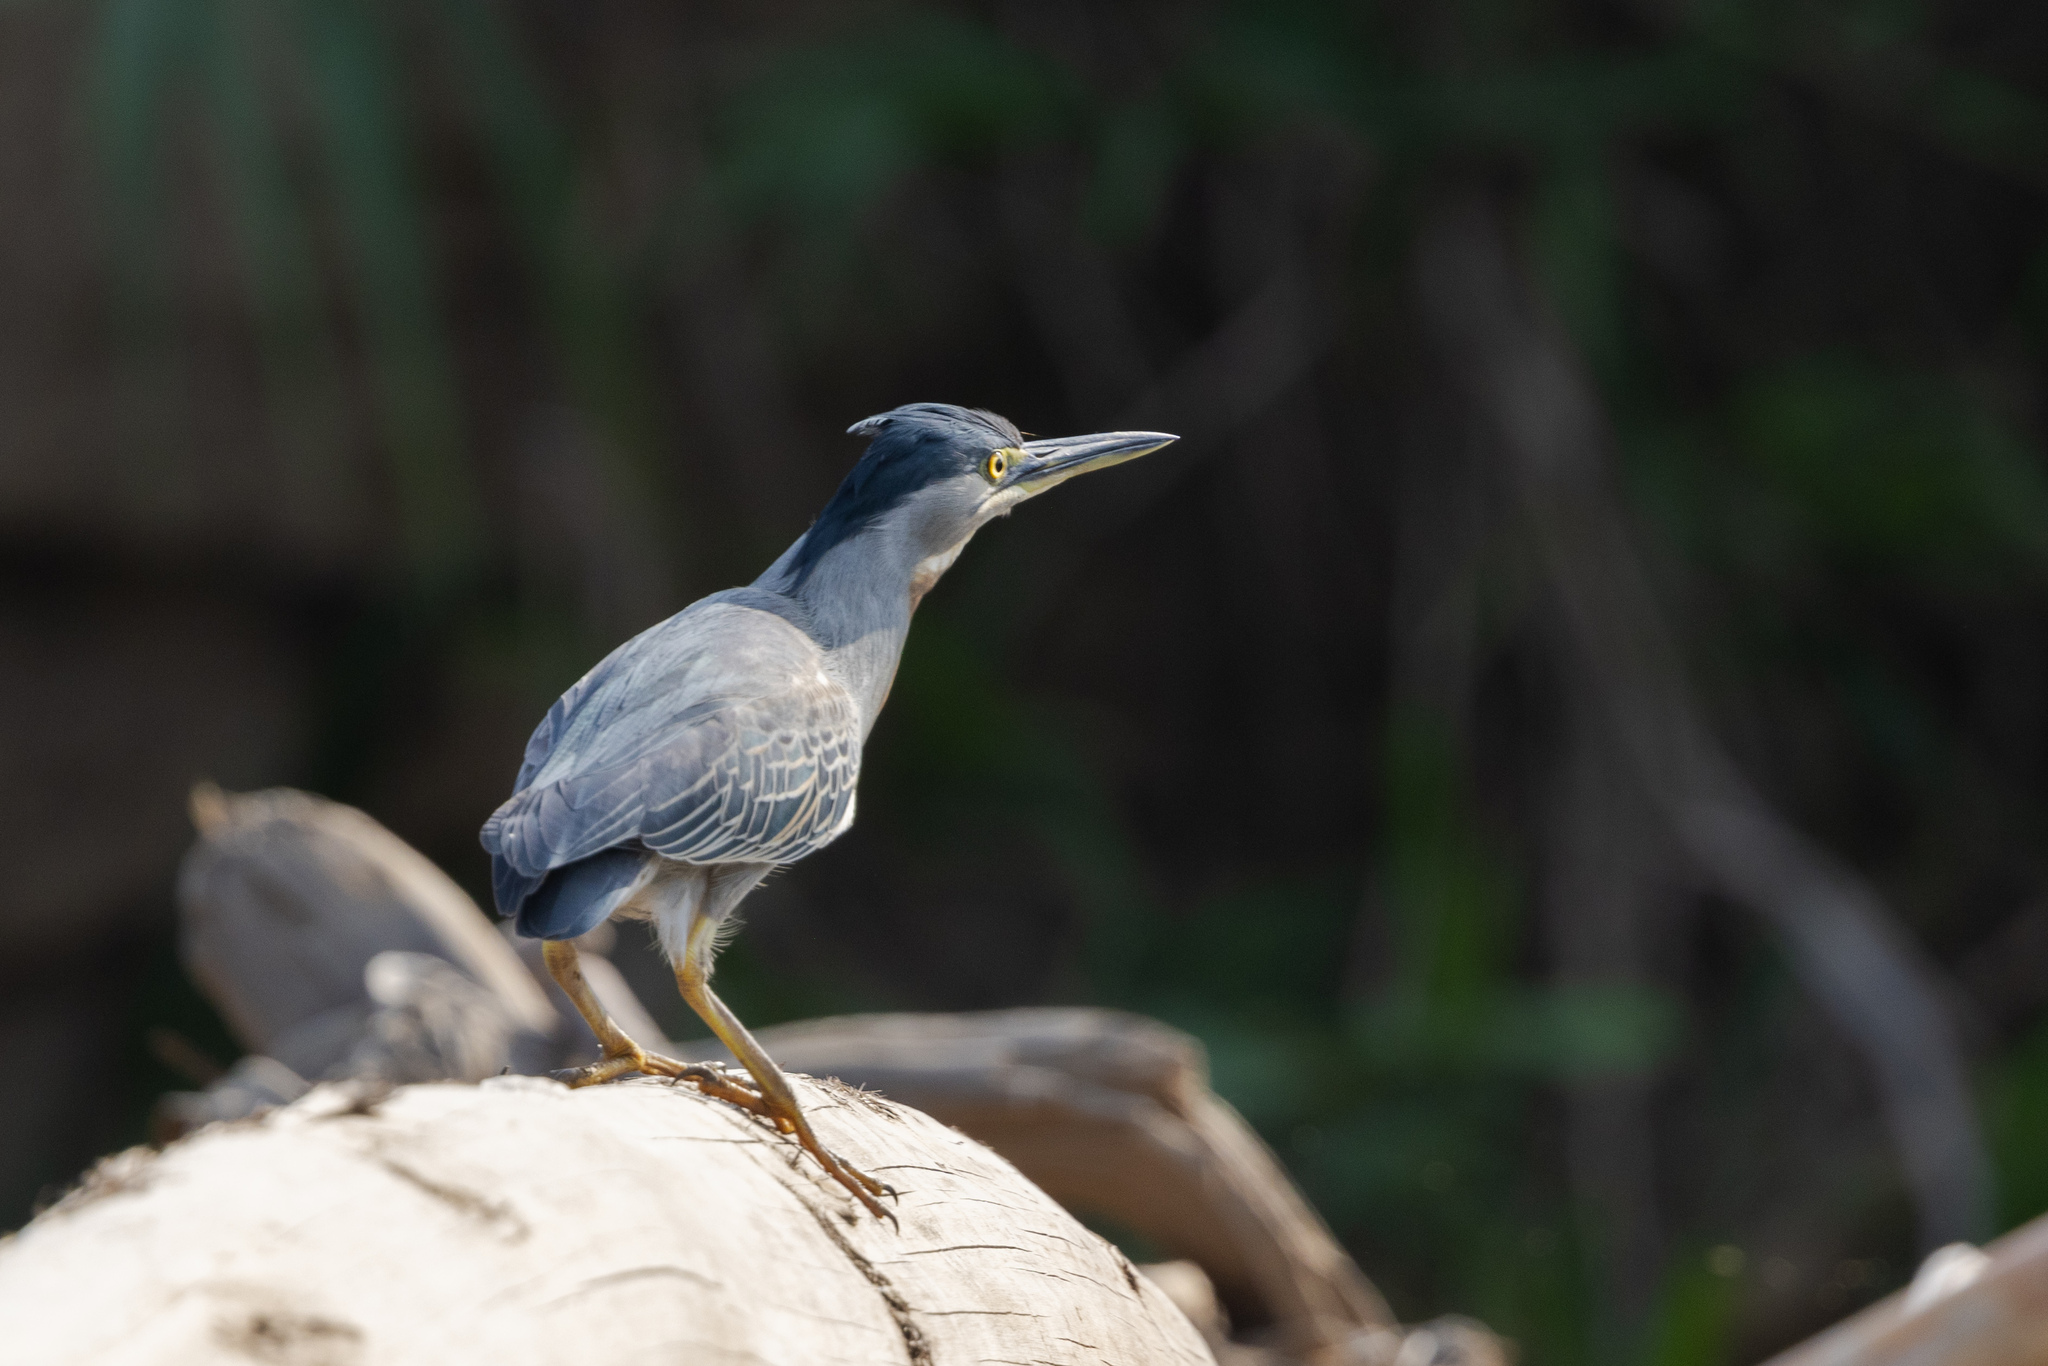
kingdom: Animalia
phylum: Chordata
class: Aves
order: Pelecaniformes
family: Ardeidae
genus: Butorides
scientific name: Butorides striata
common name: Striated heron
